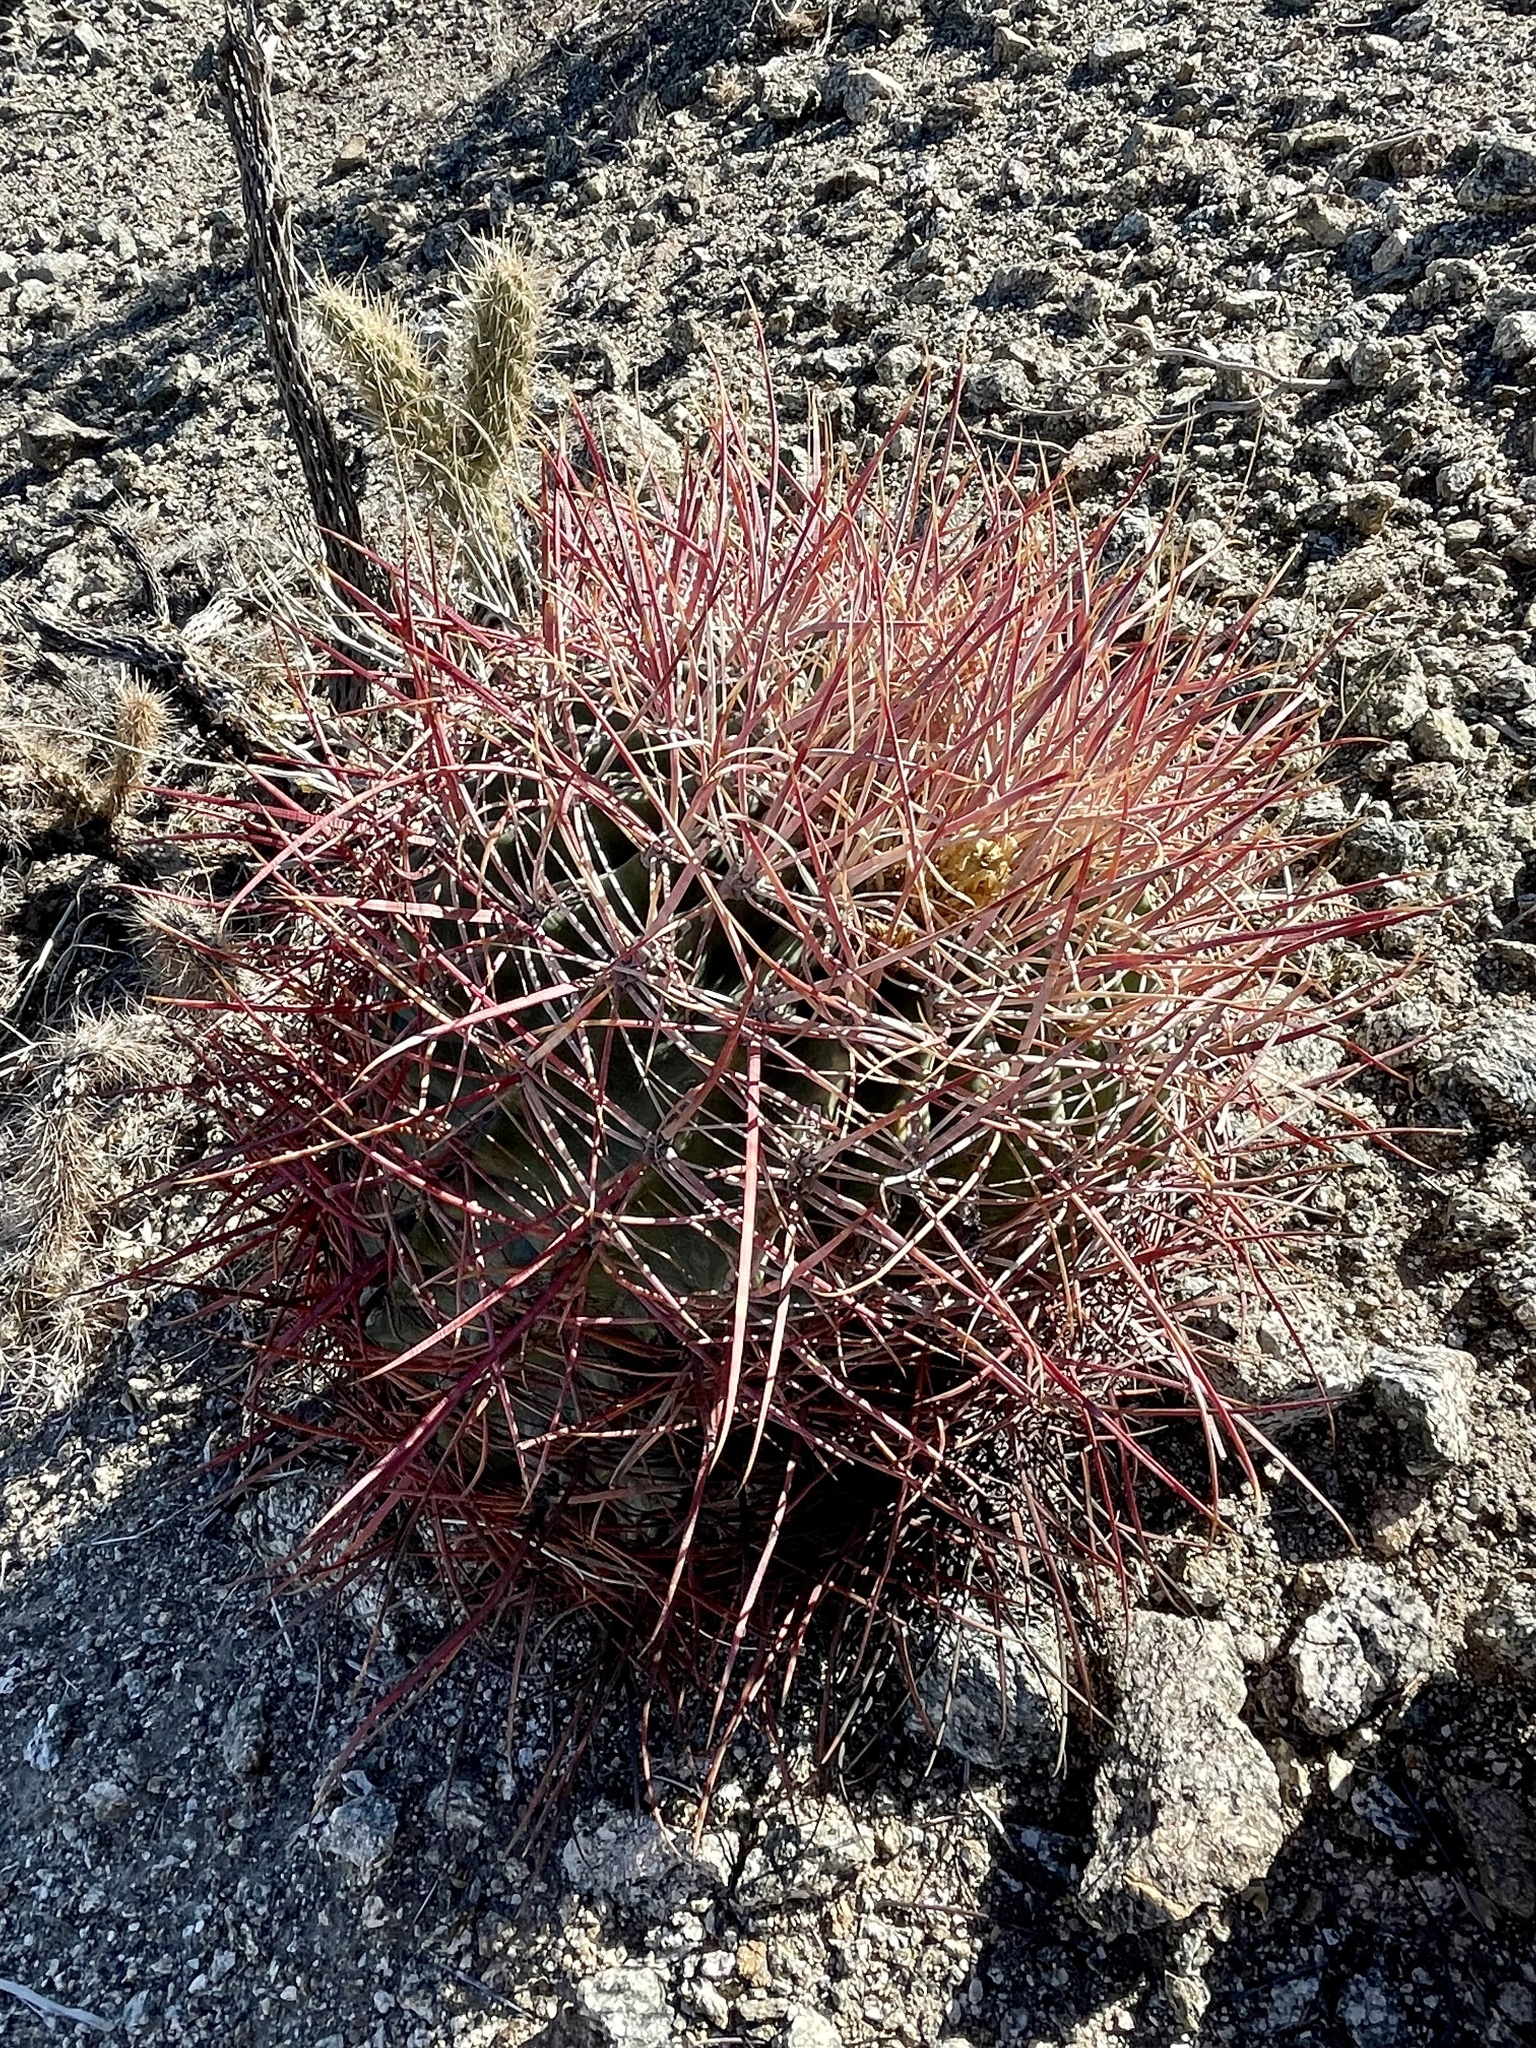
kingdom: Plantae
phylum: Tracheophyta
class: Magnoliopsida
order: Caryophyllales
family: Cactaceae
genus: Ferocactus
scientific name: Ferocactus cylindraceus
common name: California barrel cactus
